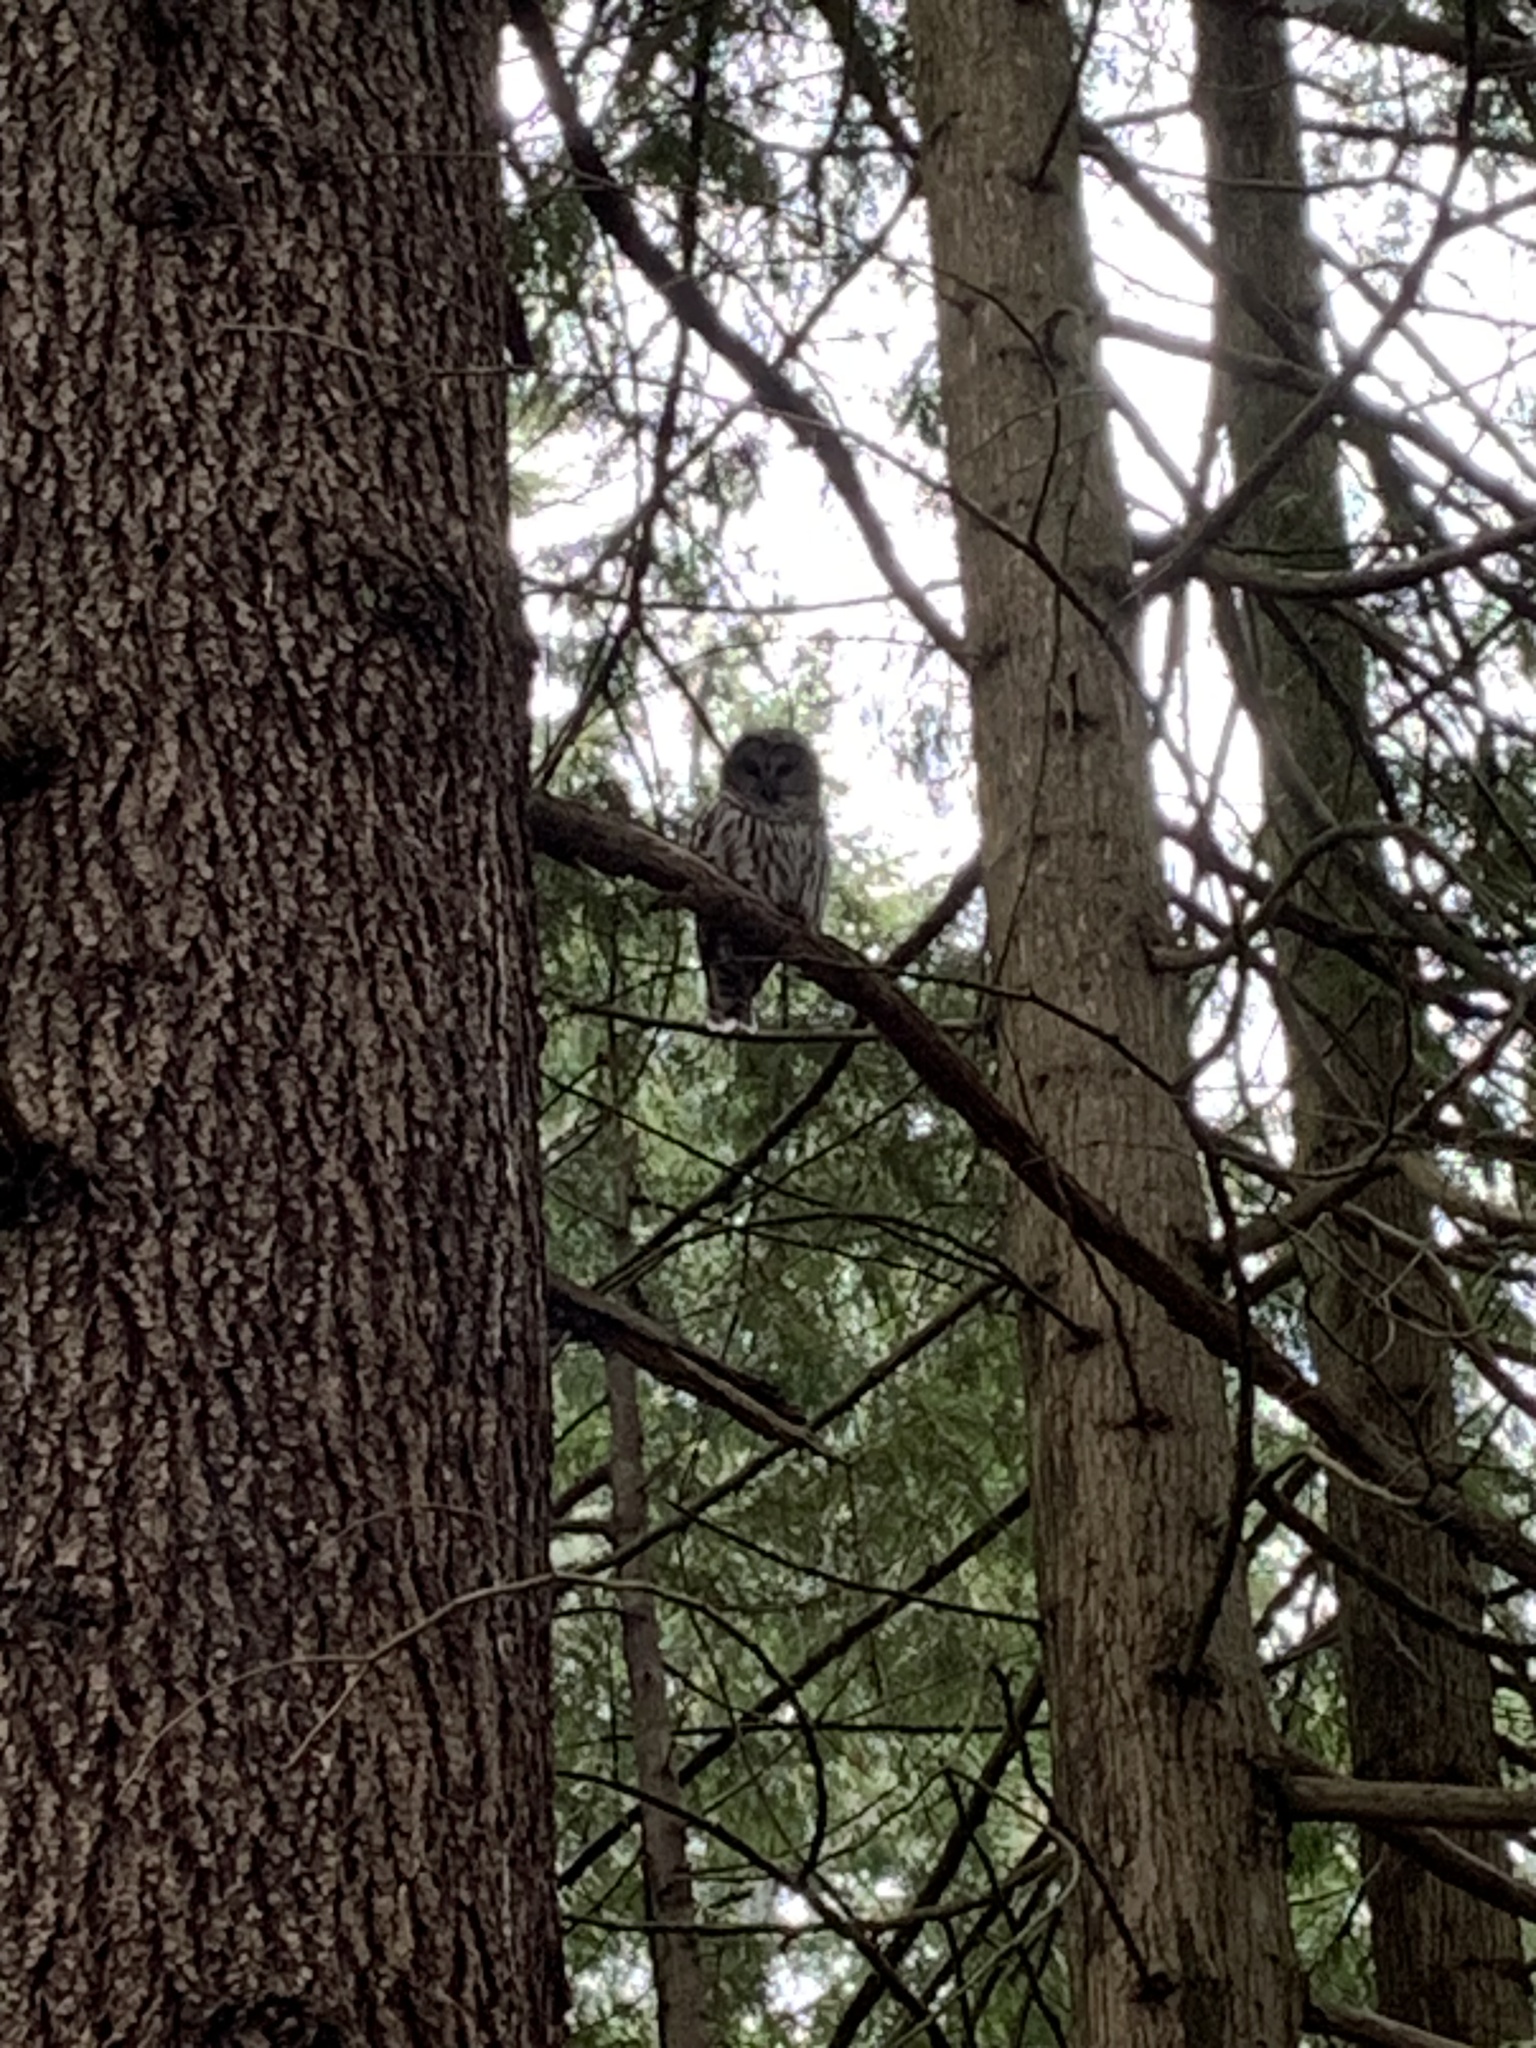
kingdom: Animalia
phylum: Chordata
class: Aves
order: Strigiformes
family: Strigidae
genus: Strix
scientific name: Strix varia
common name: Barred owl
